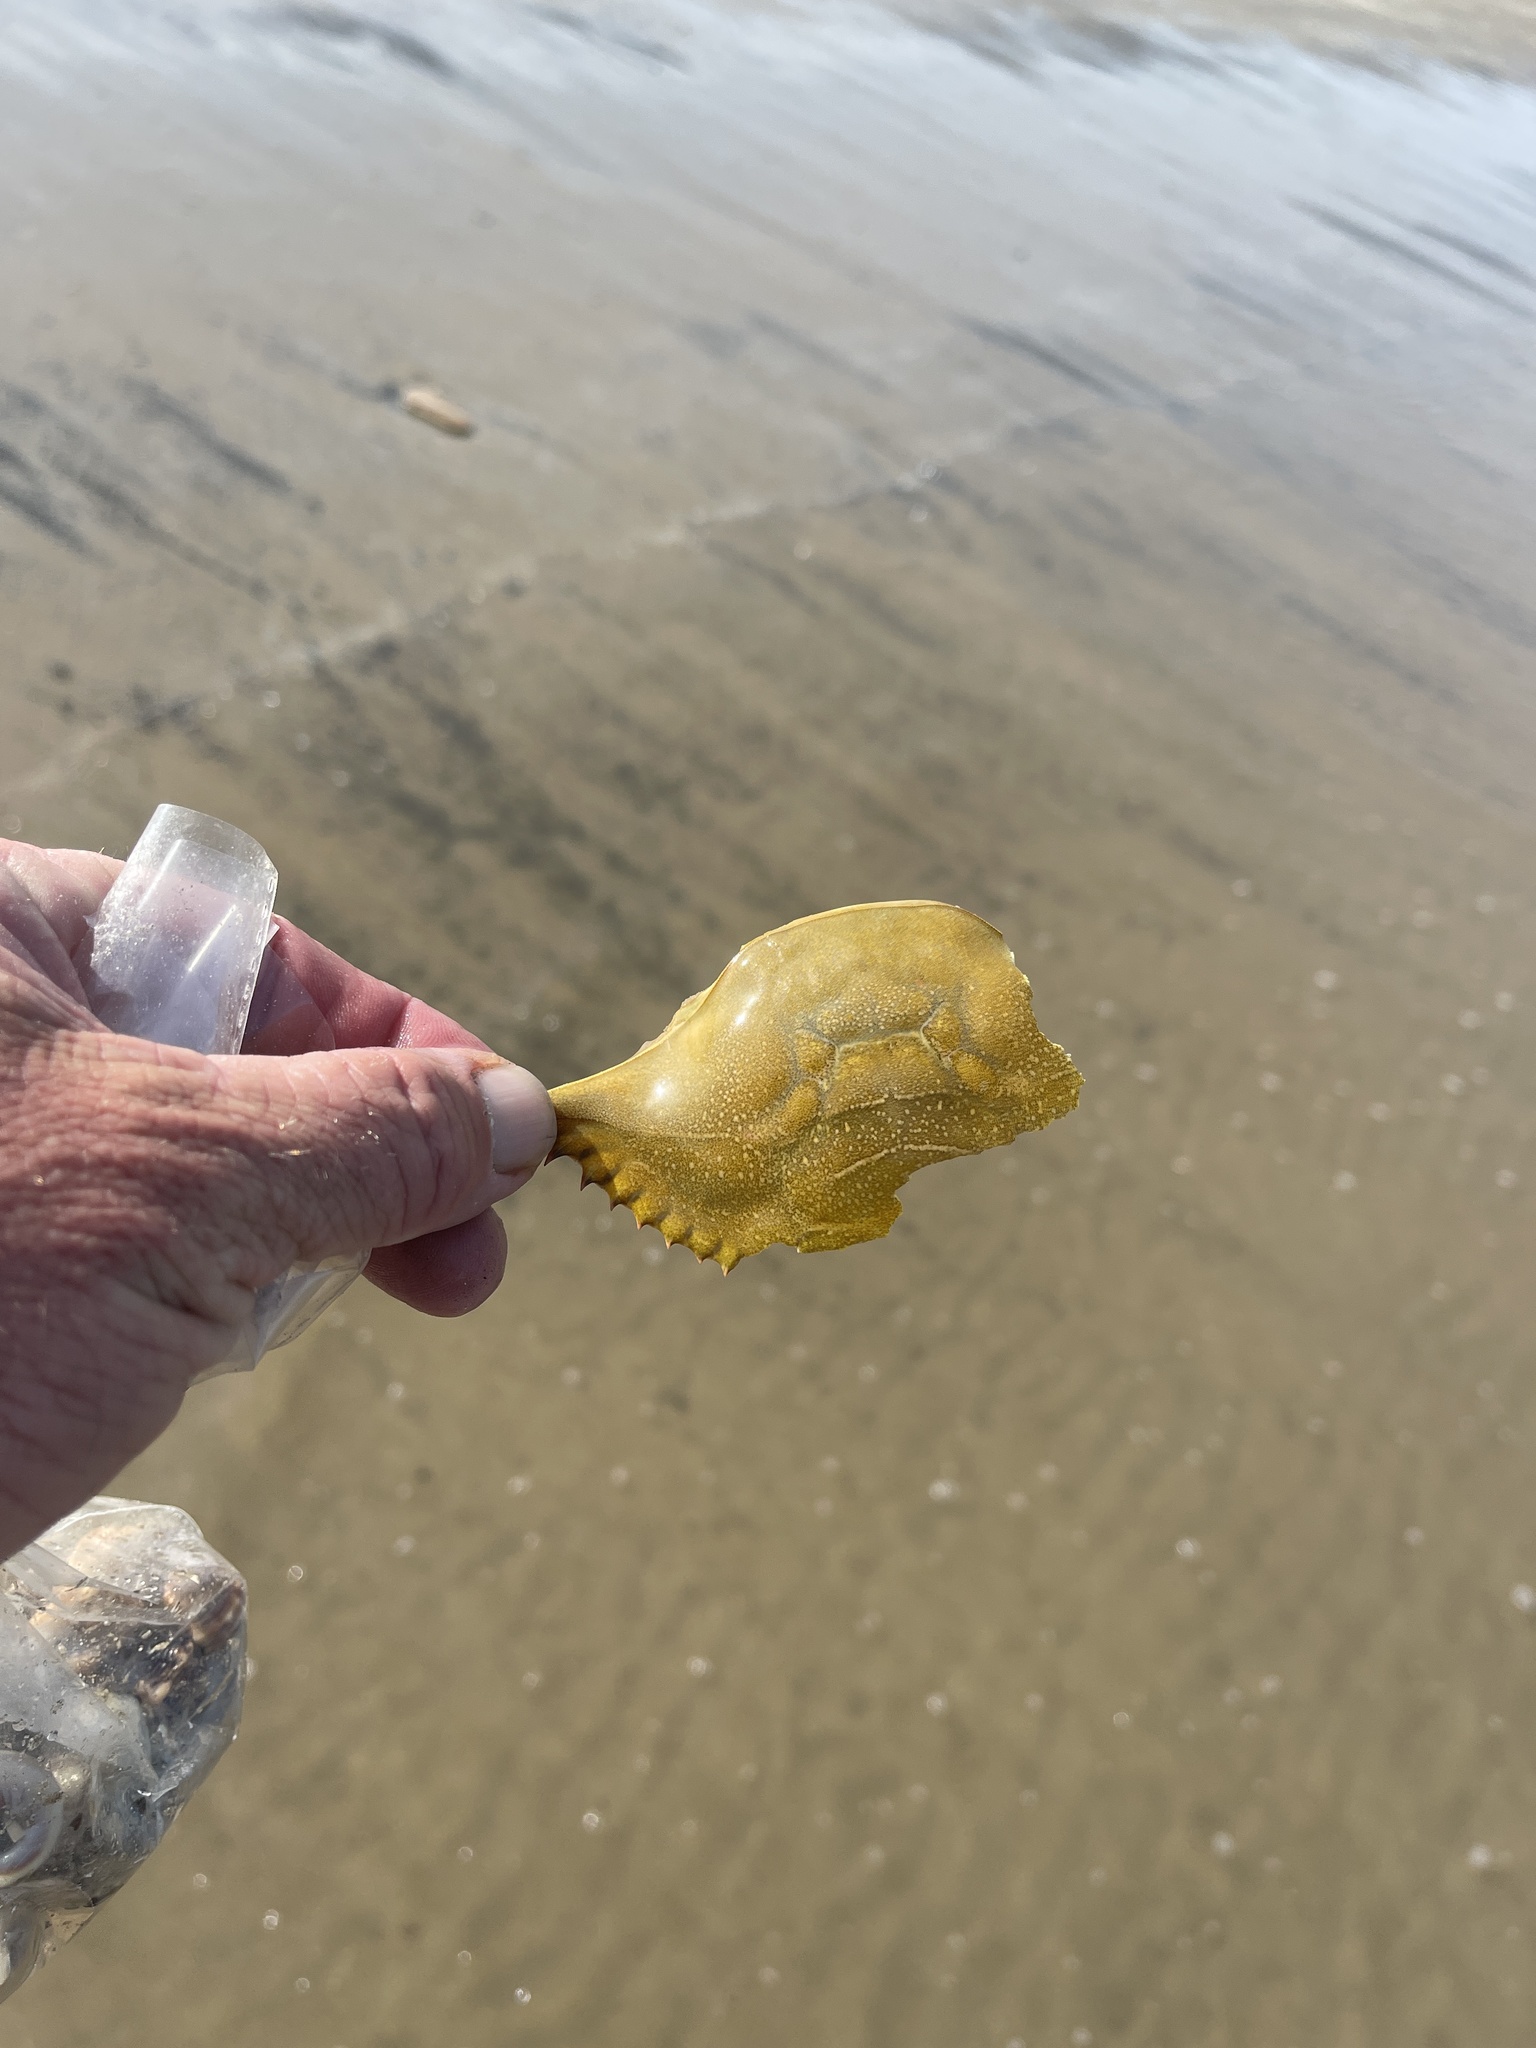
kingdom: Animalia
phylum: Arthropoda
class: Malacostraca
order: Decapoda
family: Portunidae
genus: Callinectes
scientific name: Callinectes sapidus
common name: Blue crab
